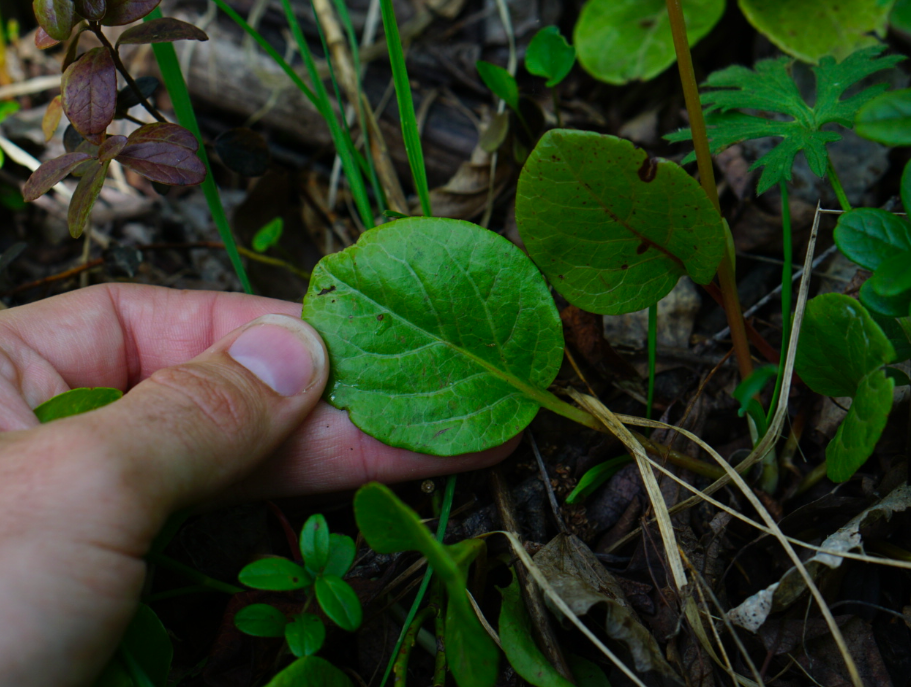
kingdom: Plantae
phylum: Tracheophyta
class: Magnoliopsida
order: Ericales
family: Ericaceae
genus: Pyrola
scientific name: Pyrola rotundifolia
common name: Round-leaved wintergreen
